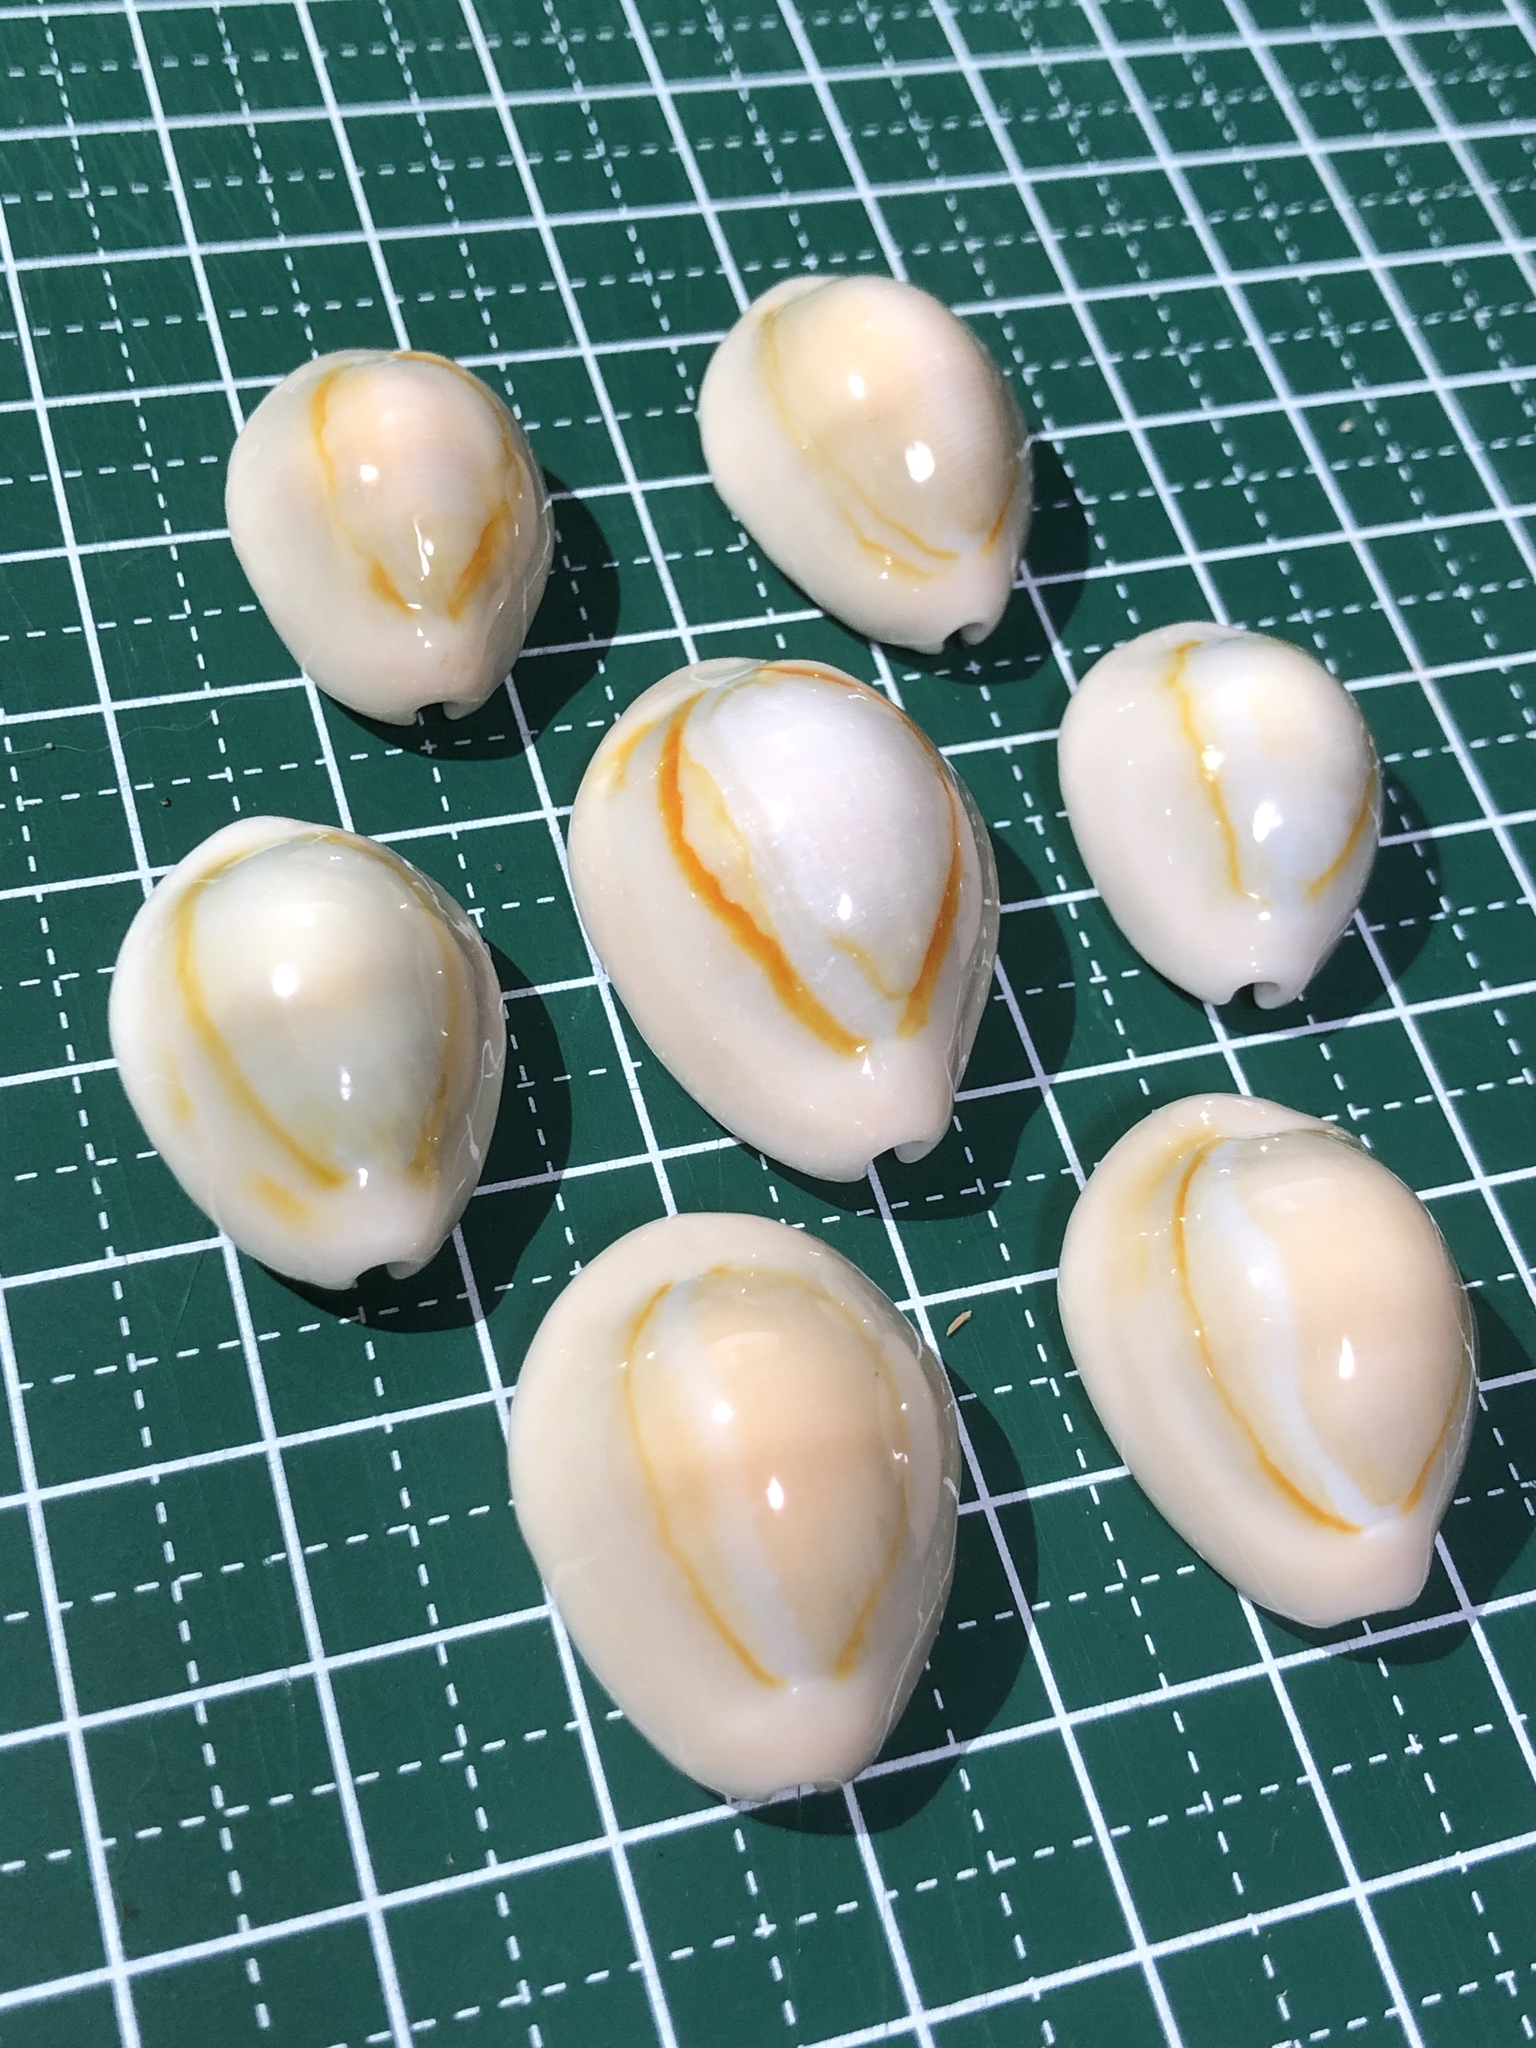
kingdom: Animalia
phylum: Mollusca
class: Gastropoda
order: Littorinimorpha
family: Cypraeidae
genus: Monetaria
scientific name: Monetaria annulus
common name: Ring cowrie
